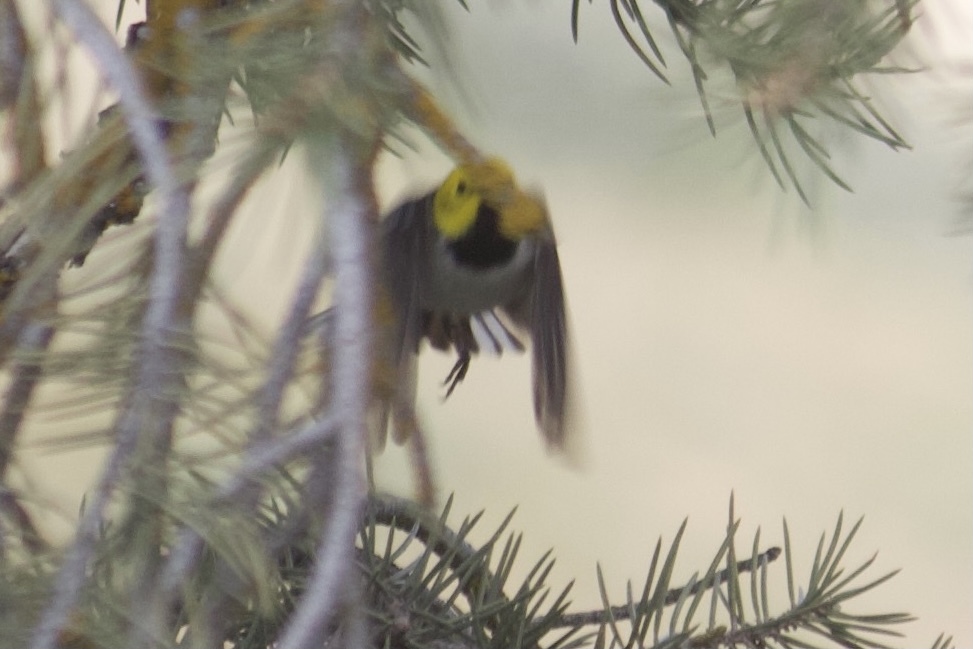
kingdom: Animalia
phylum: Chordata
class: Aves
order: Passeriformes
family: Parulidae
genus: Setophaga
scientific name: Setophaga occidentalis
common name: Hermit warbler
